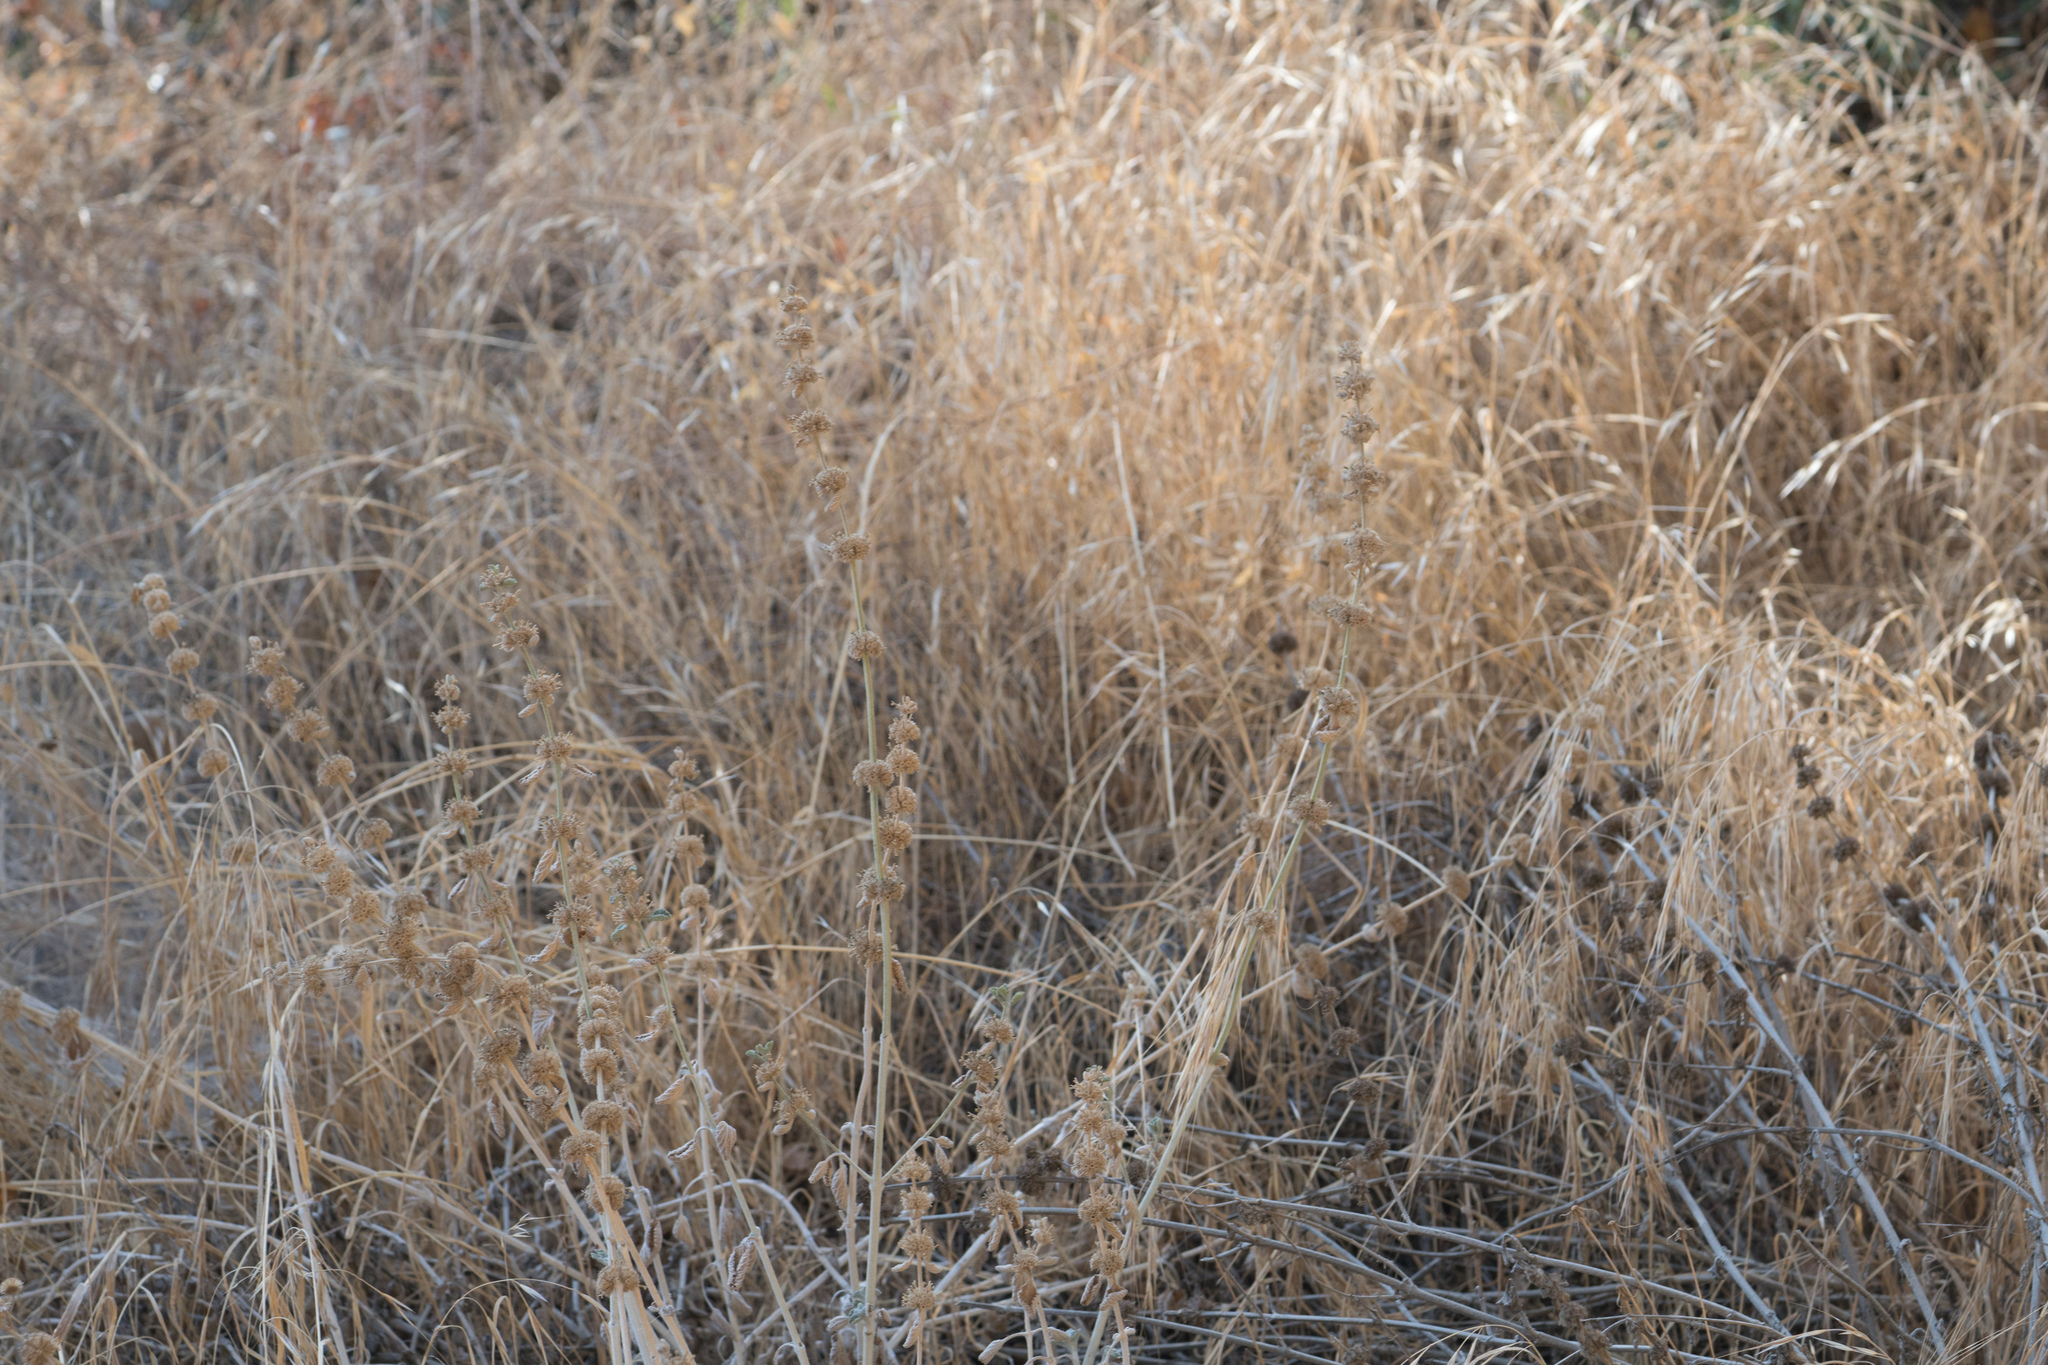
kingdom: Plantae
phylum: Tracheophyta
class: Magnoliopsida
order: Lamiales
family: Lamiaceae
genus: Marrubium
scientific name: Marrubium vulgare
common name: Horehound
